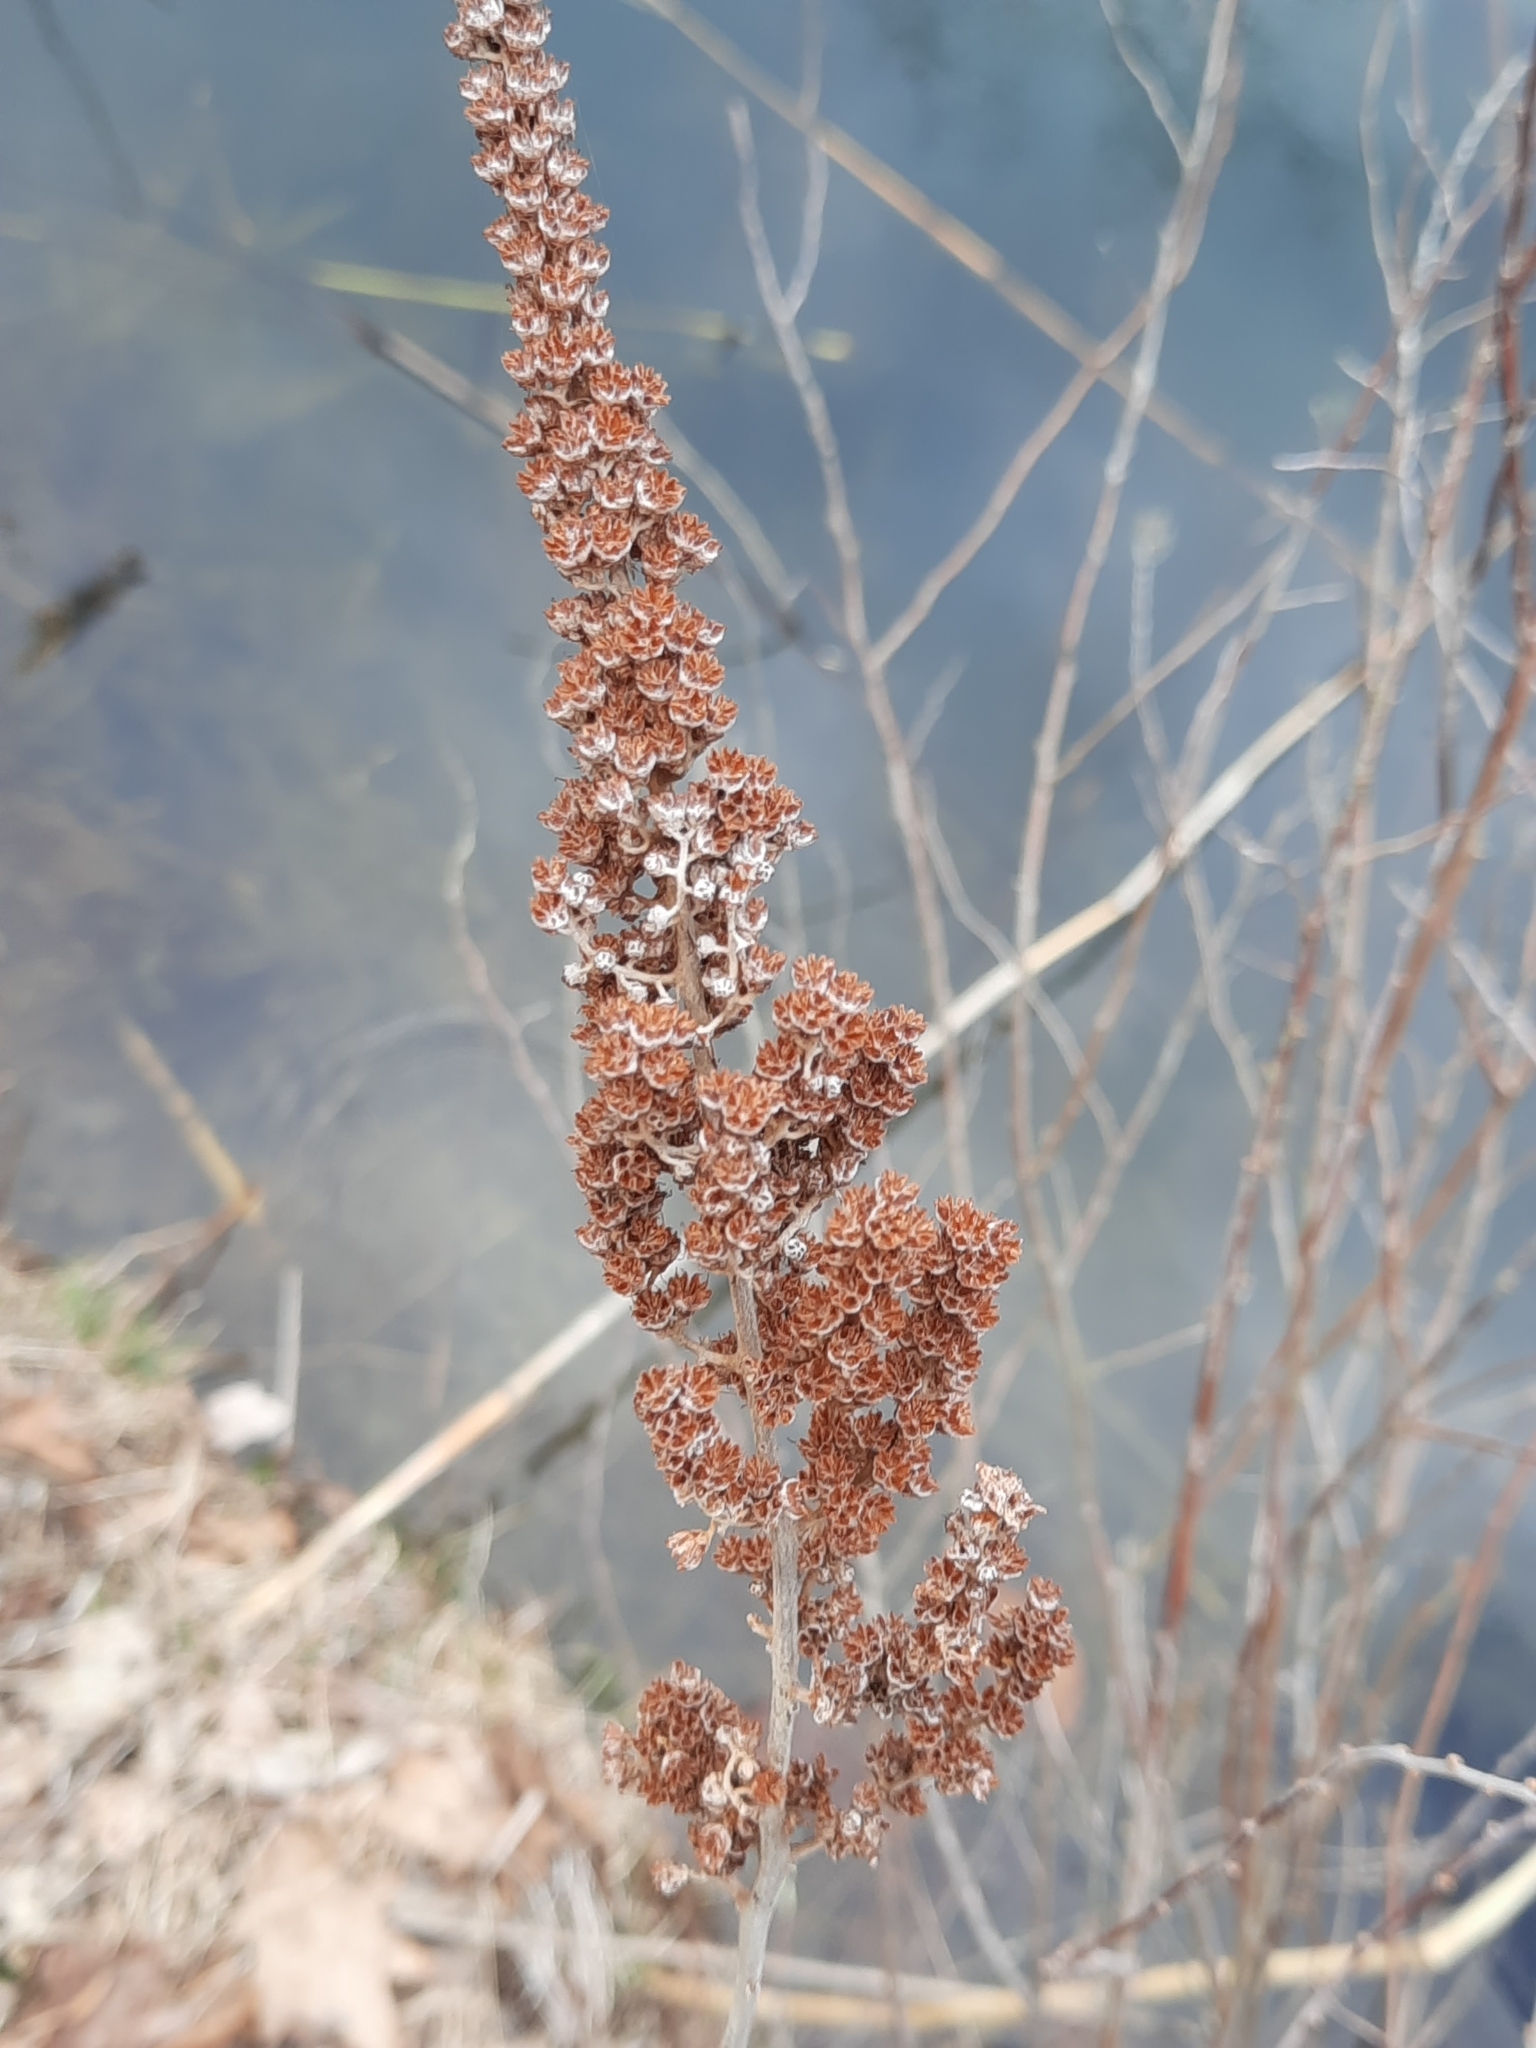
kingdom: Plantae
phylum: Tracheophyta
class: Magnoliopsida
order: Rosales
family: Rosaceae
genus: Spiraea
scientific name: Spiraea tomentosa
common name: Hardhack
